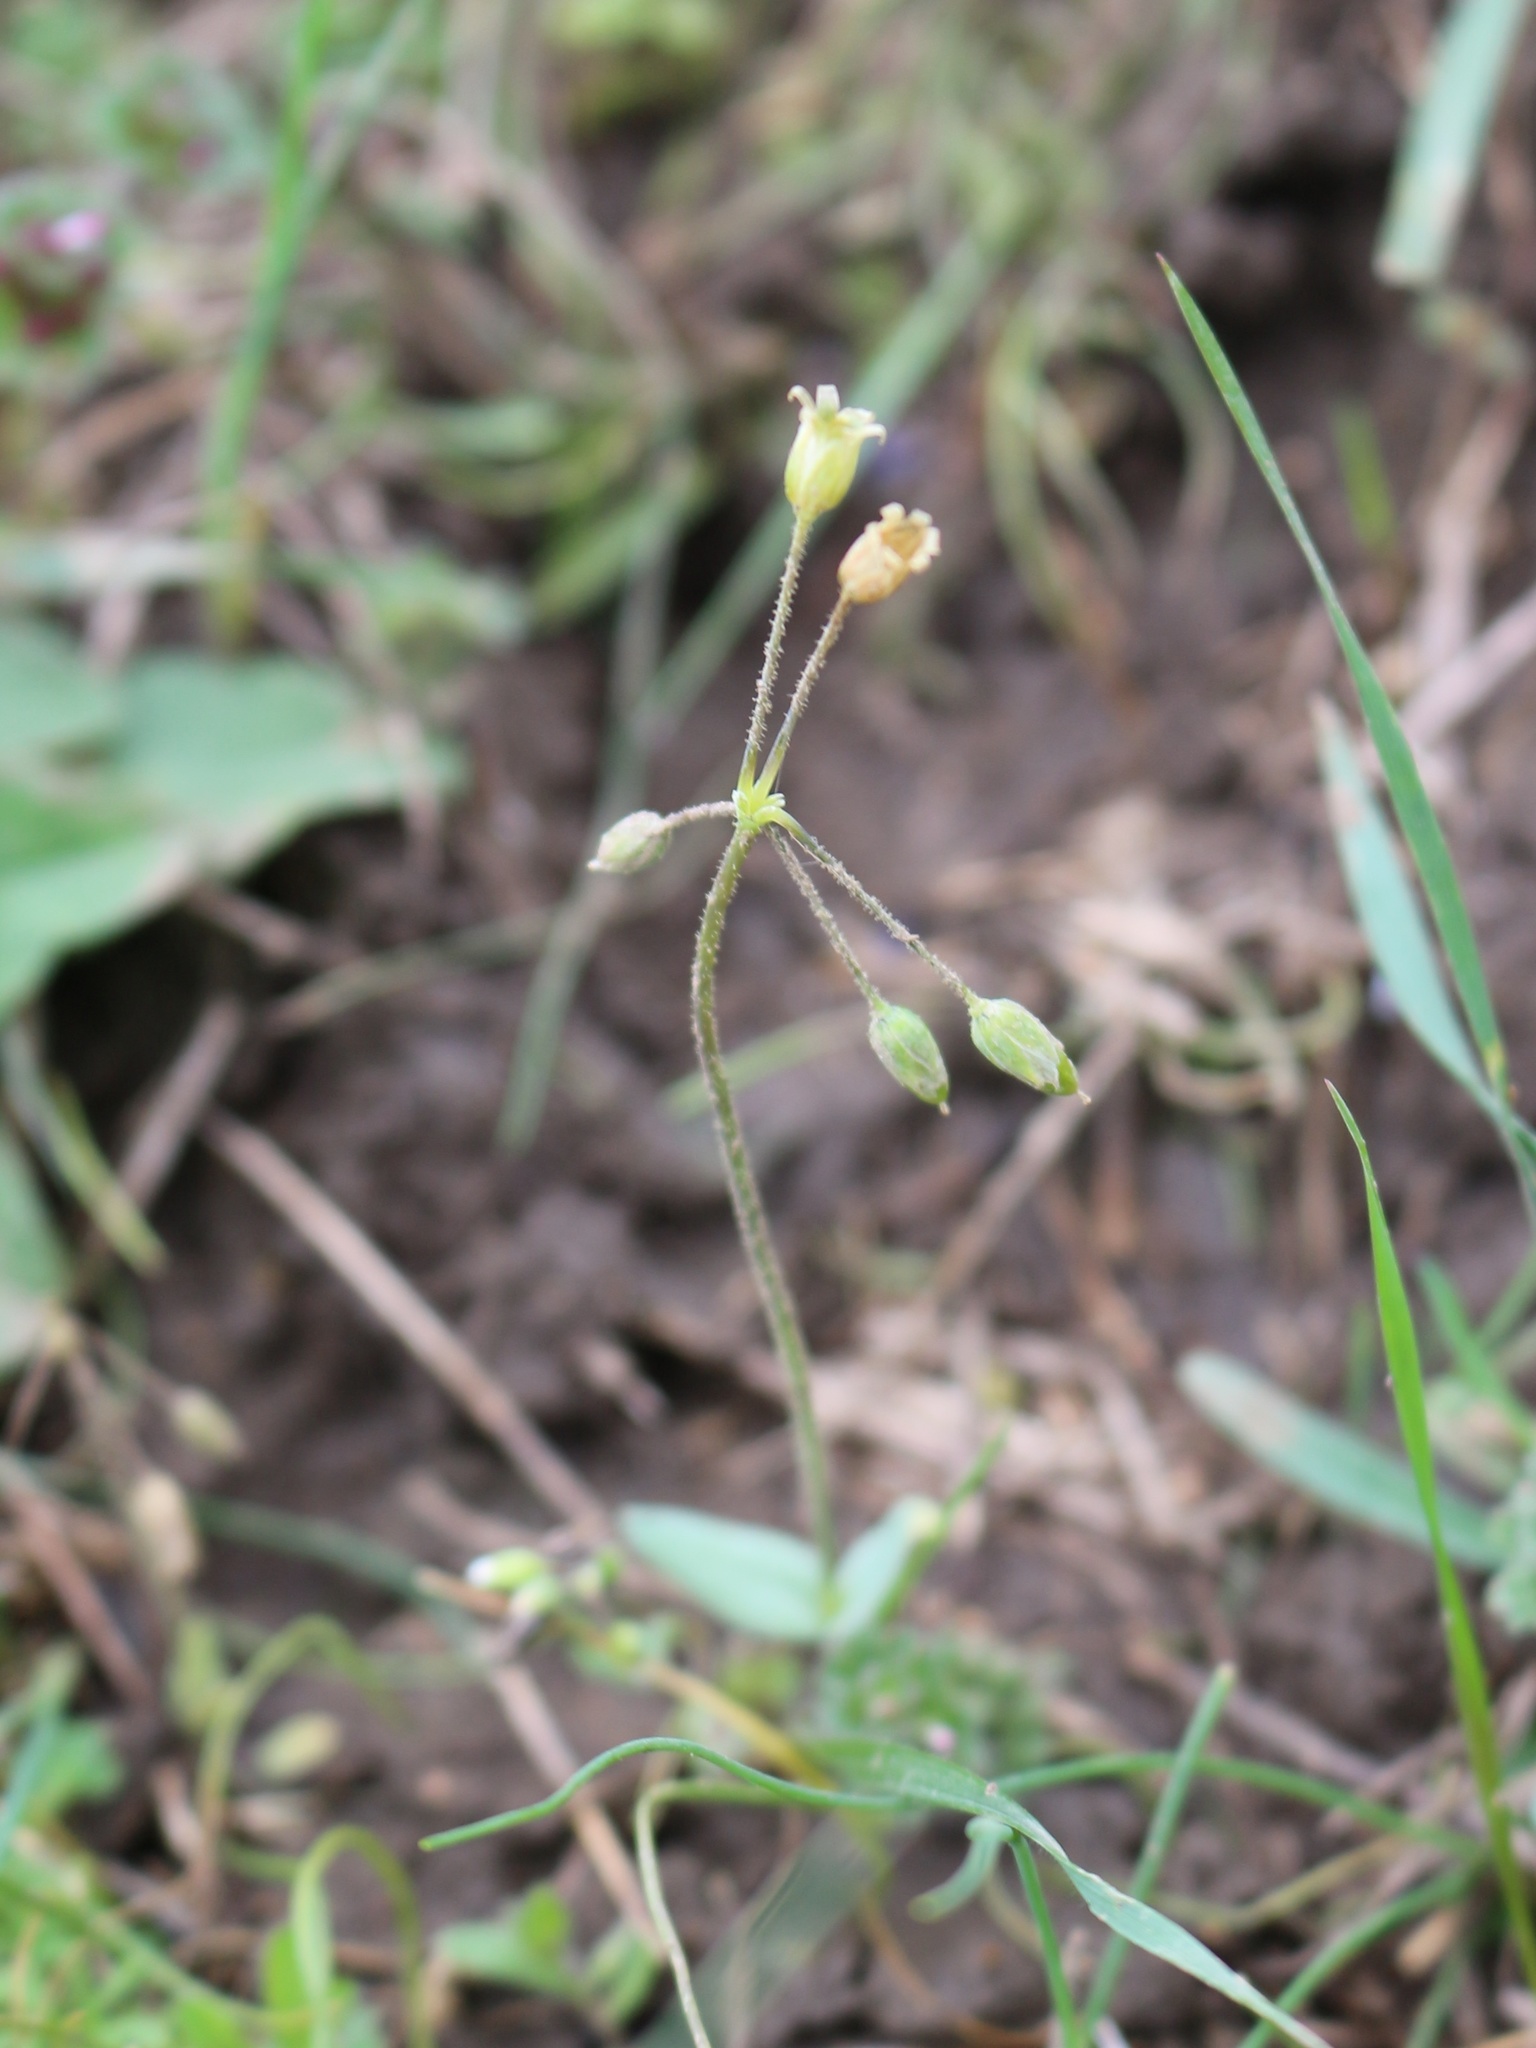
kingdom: Plantae
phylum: Tracheophyta
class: Magnoliopsida
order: Caryophyllales
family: Caryophyllaceae
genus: Holosteum
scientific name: Holosteum umbellatum
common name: Jagged chickweed
